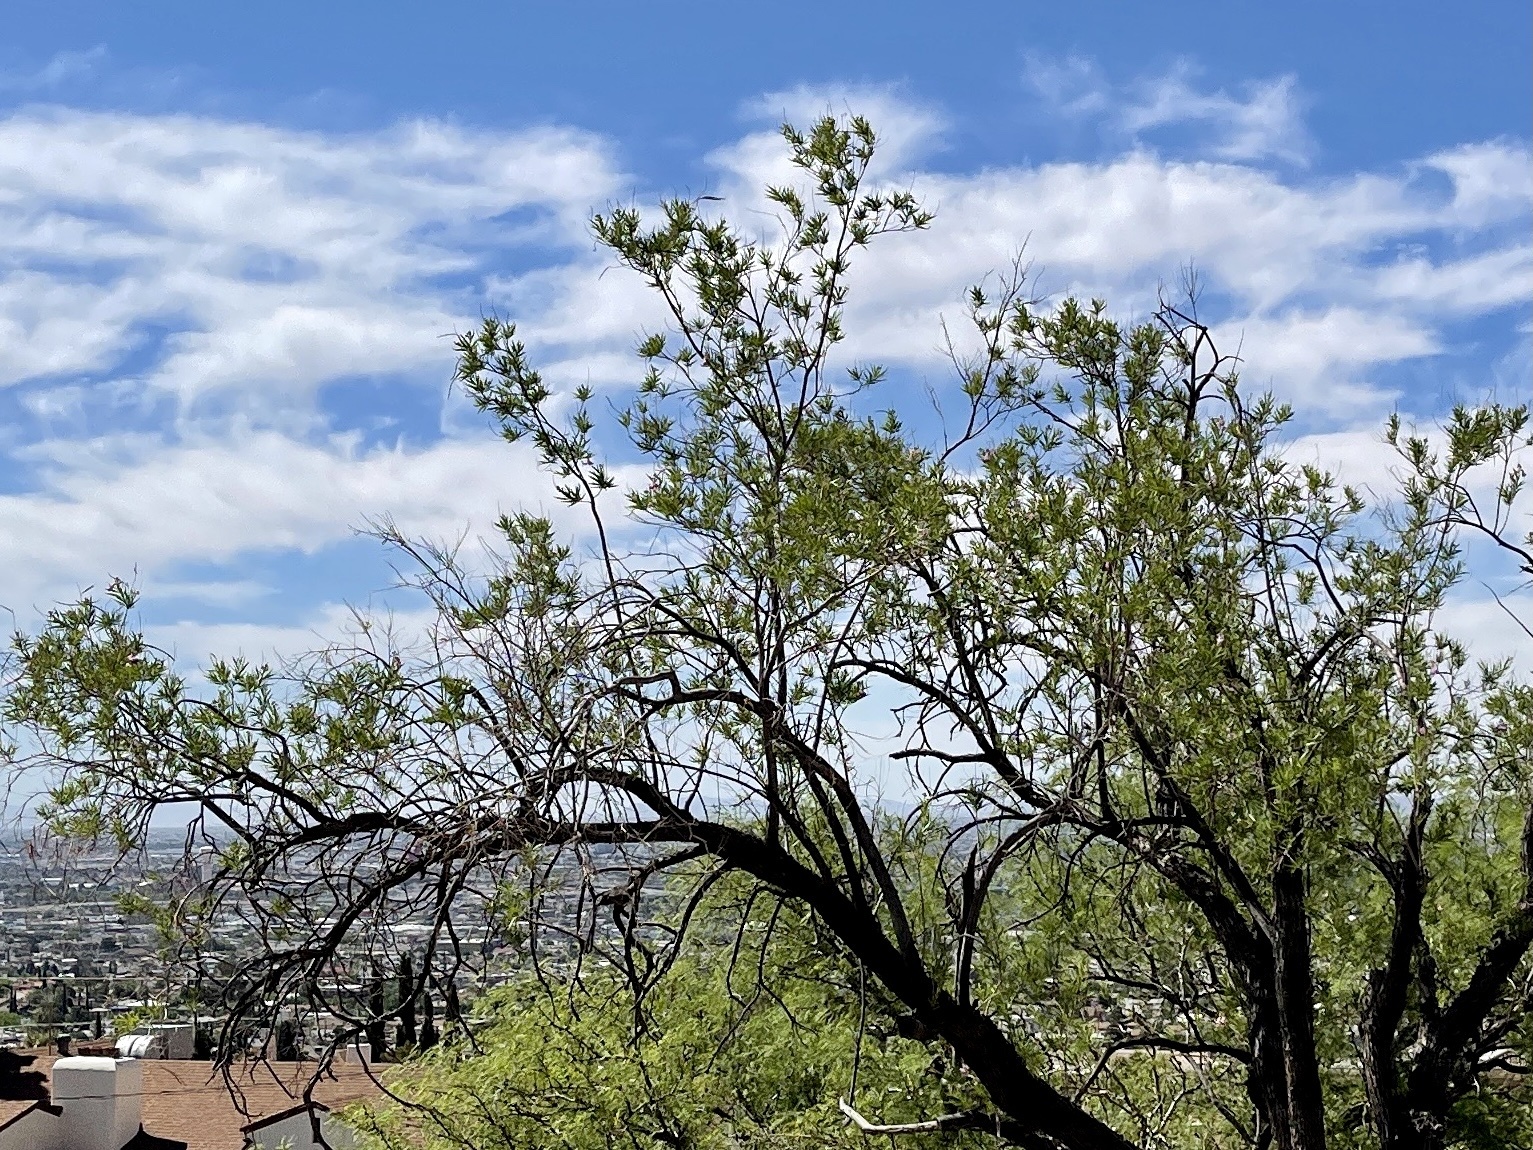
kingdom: Plantae
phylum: Tracheophyta
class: Magnoliopsida
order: Lamiales
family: Bignoniaceae
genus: Chilopsis
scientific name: Chilopsis linearis
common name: Desert-willow
